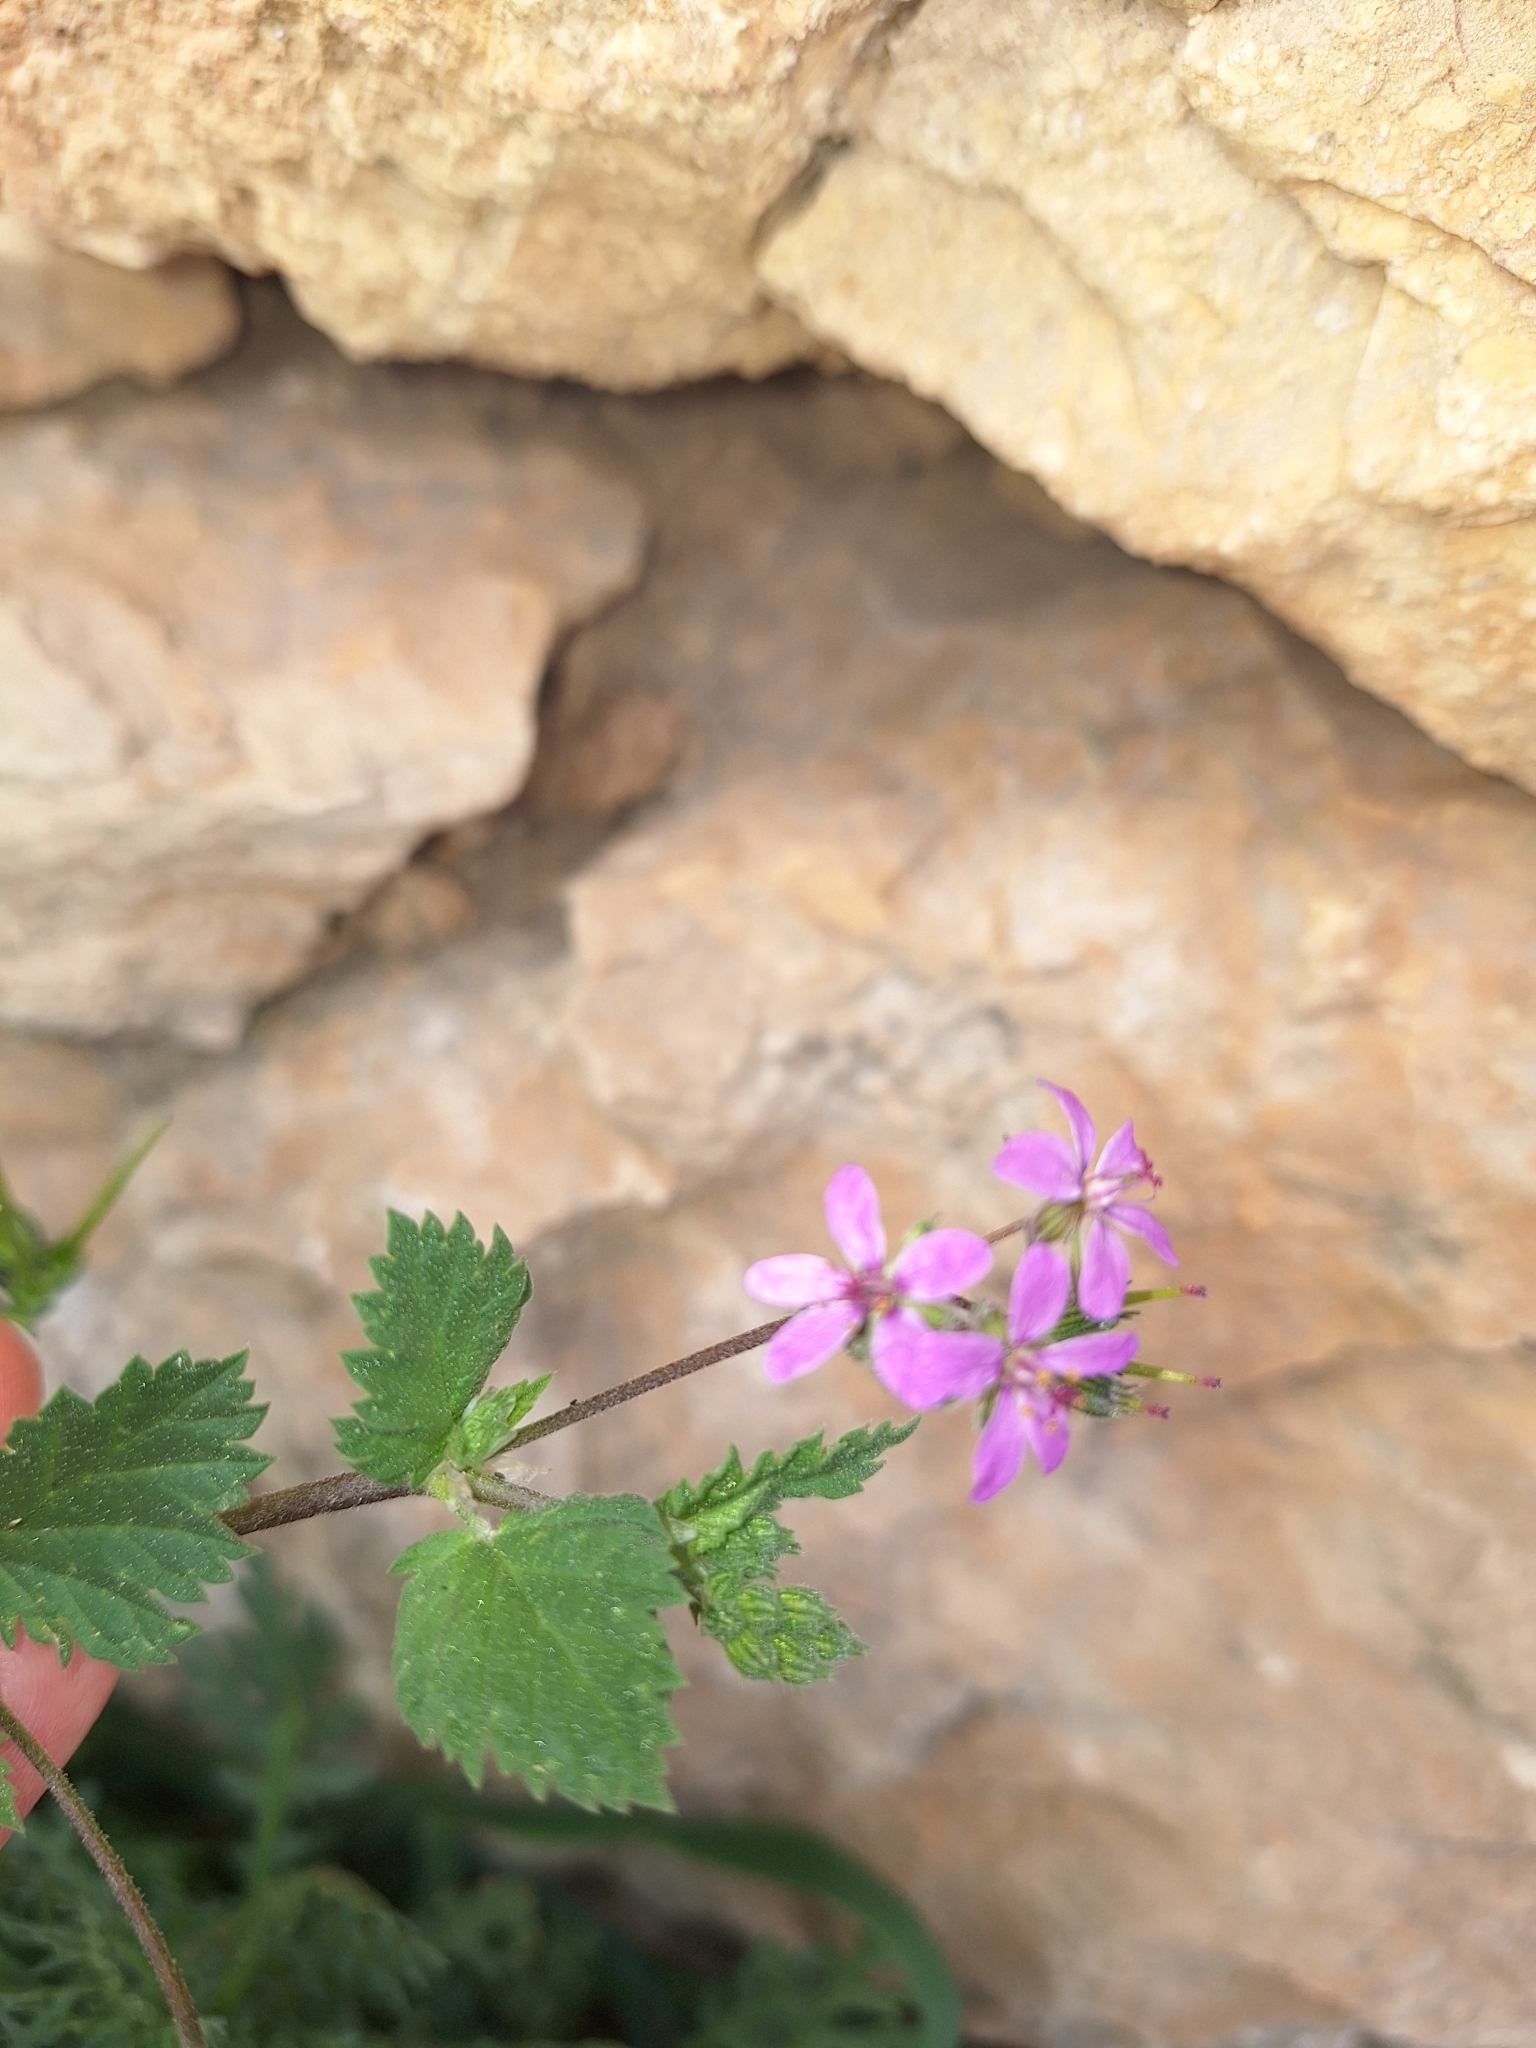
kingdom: Plantae
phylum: Tracheophyta
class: Magnoliopsida
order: Geraniales
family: Geraniaceae
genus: Erodium
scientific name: Erodium malacoides
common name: Soft stork's-bill
